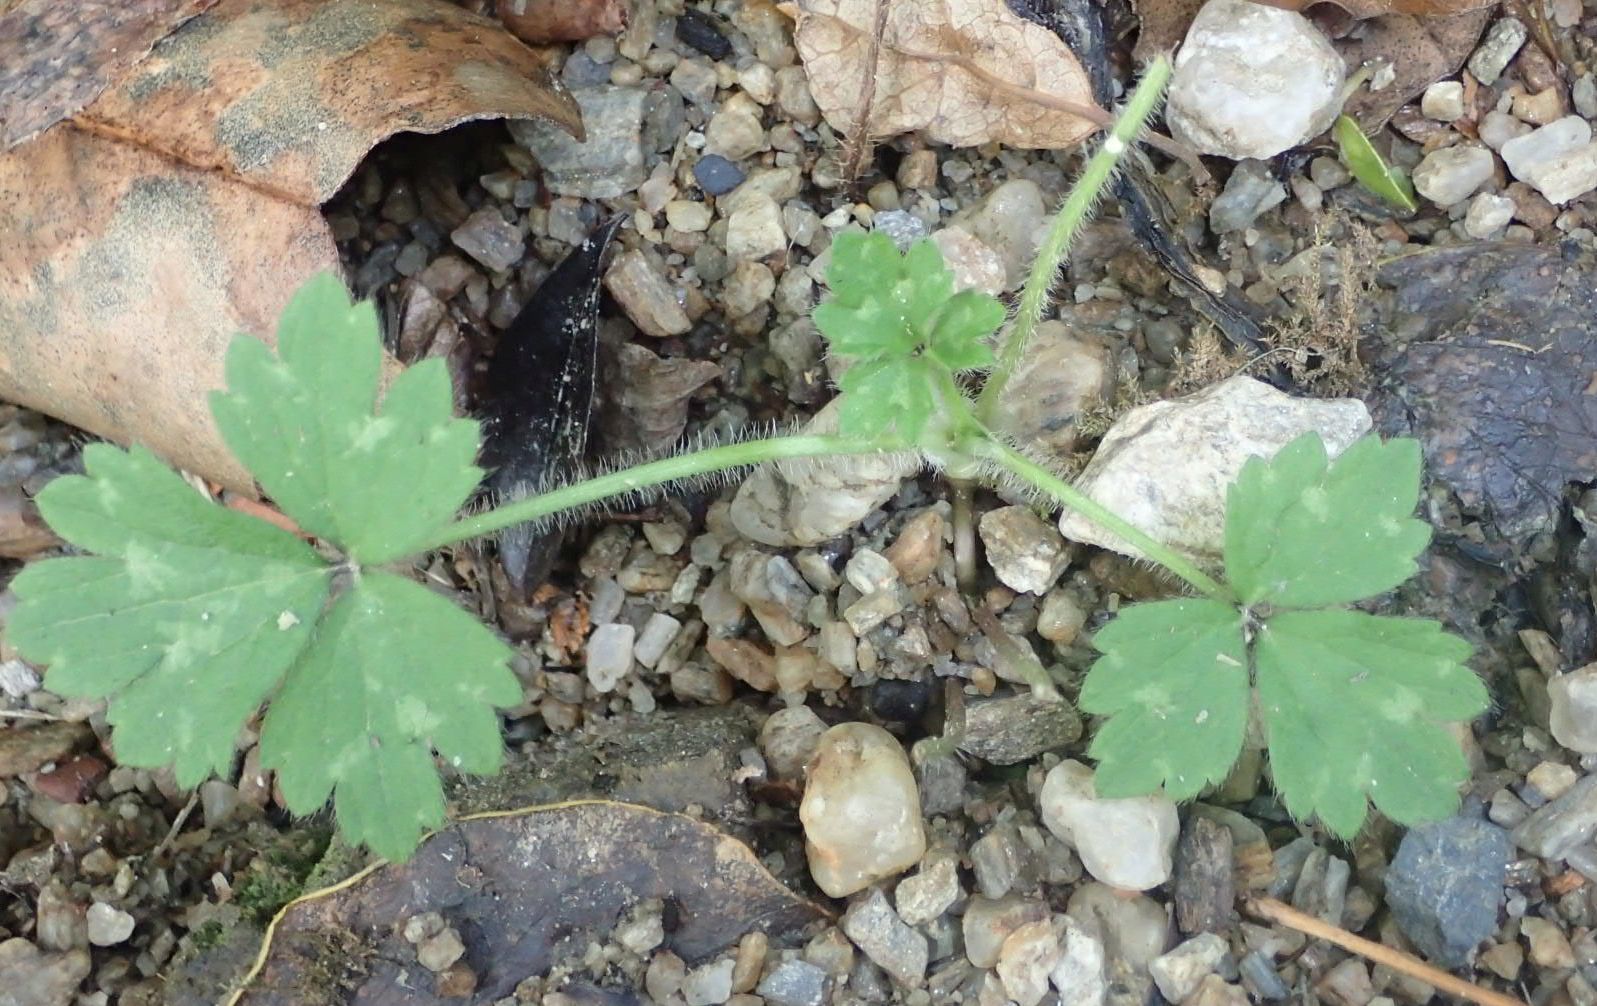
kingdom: Plantae
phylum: Tracheophyta
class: Magnoliopsida
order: Ranunculales
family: Ranunculaceae
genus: Ranunculus
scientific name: Ranunculus repens
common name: Creeping buttercup
